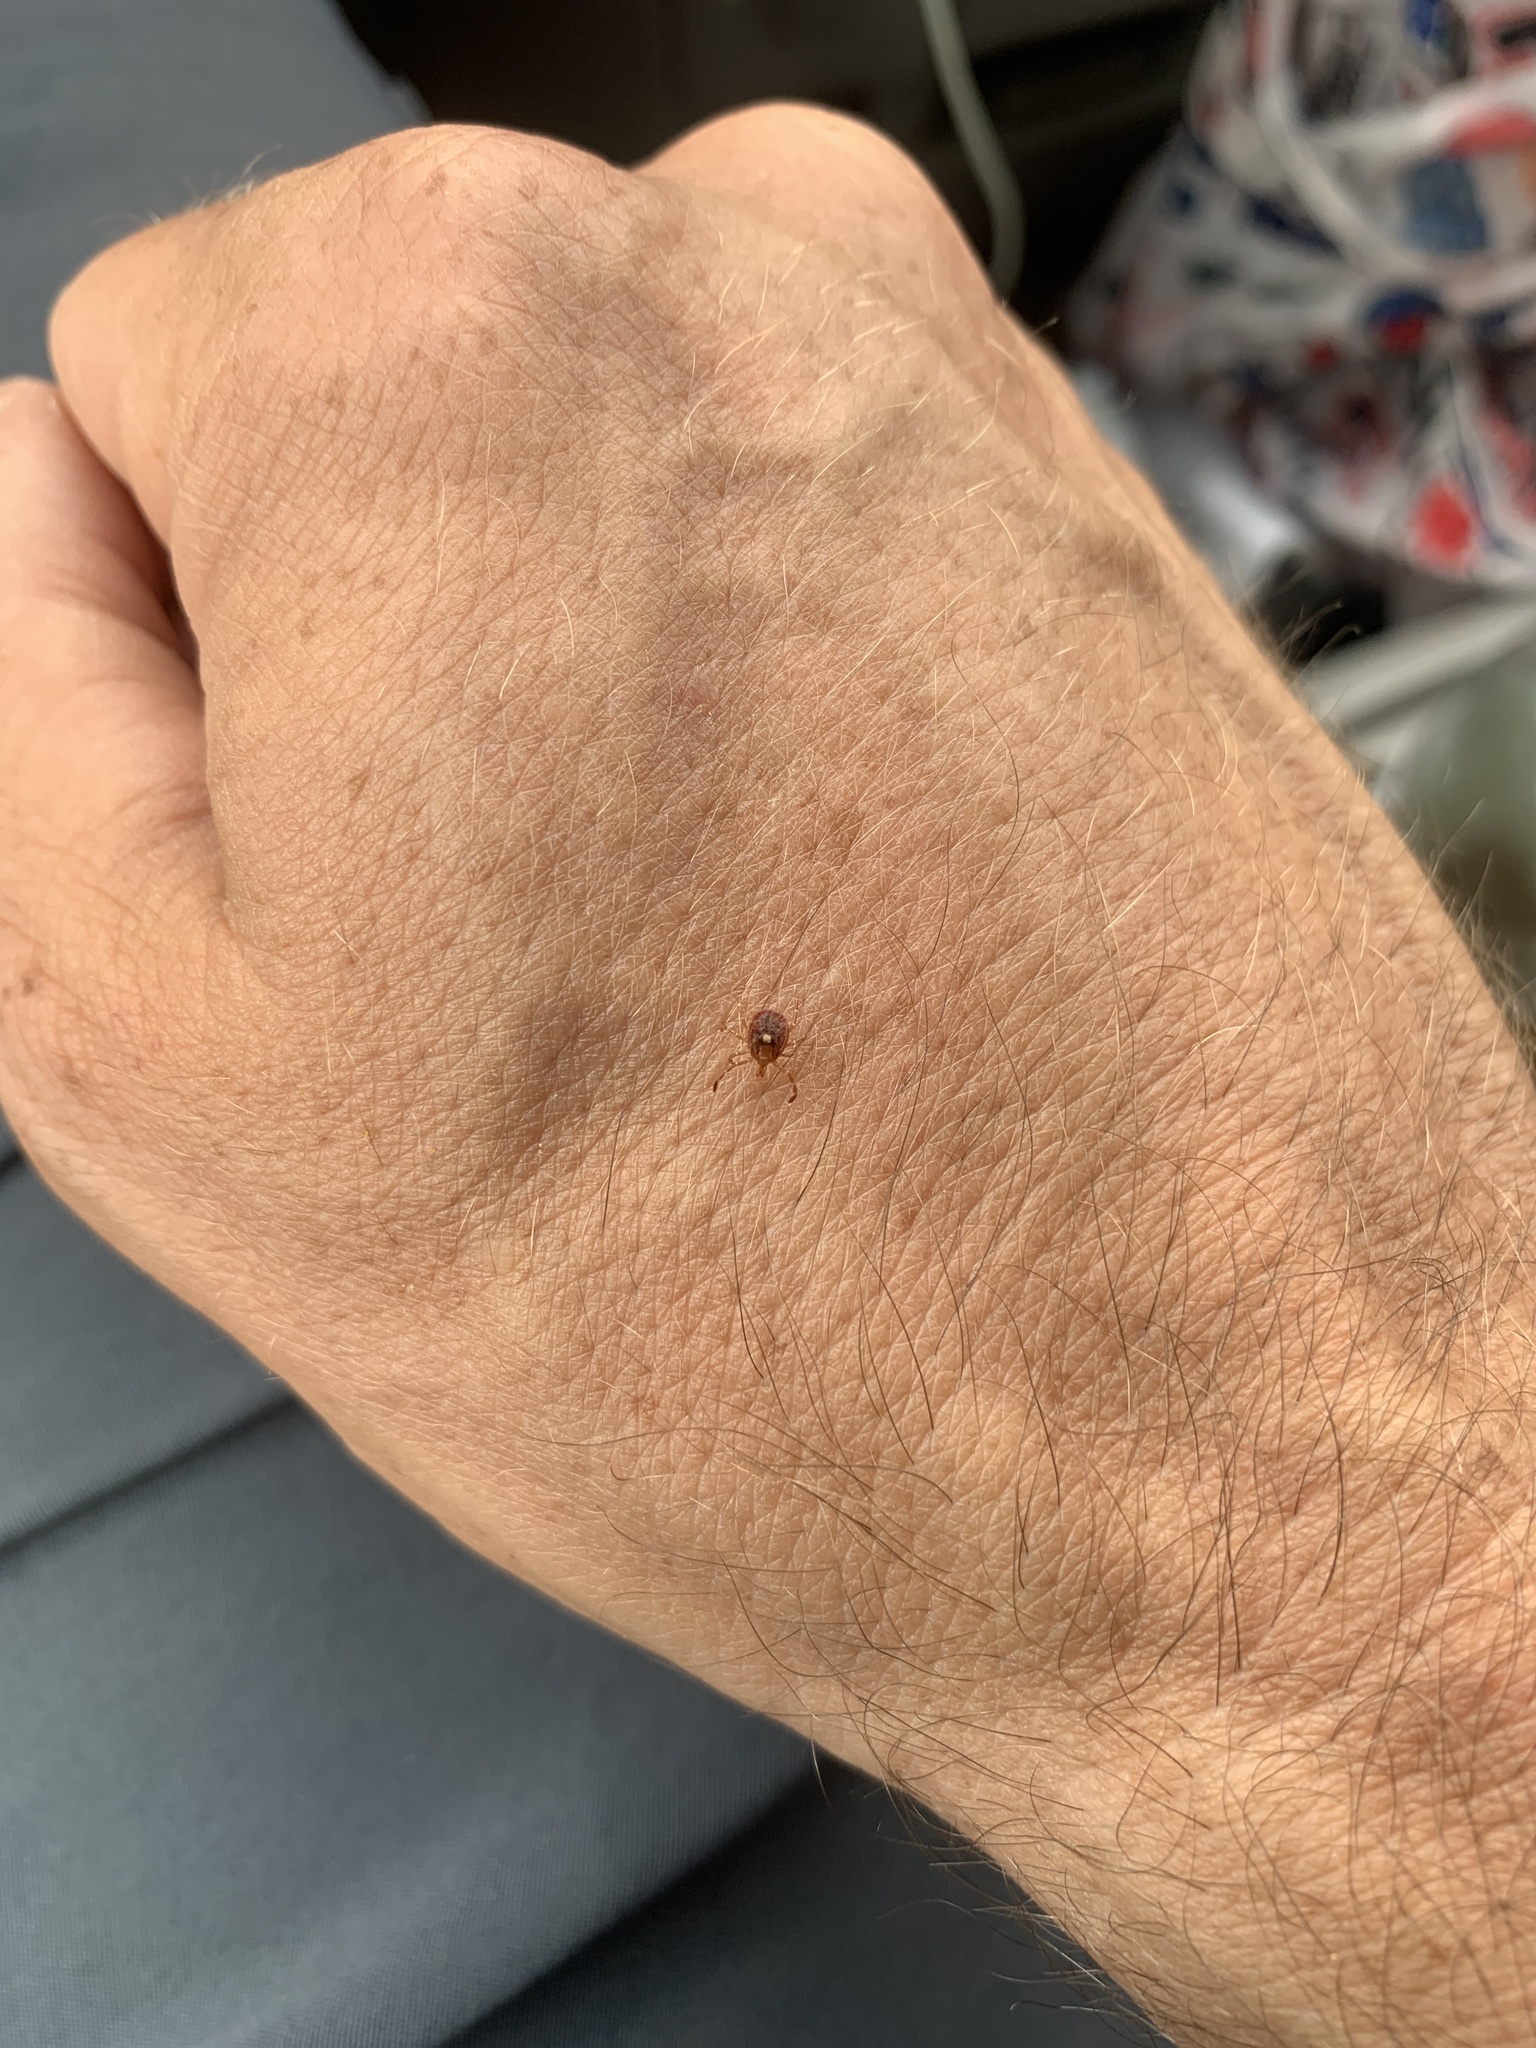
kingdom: Animalia
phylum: Arthropoda
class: Arachnida
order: Ixodida
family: Ixodidae
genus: Amblyomma
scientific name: Amblyomma americanum
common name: Lone star tick
